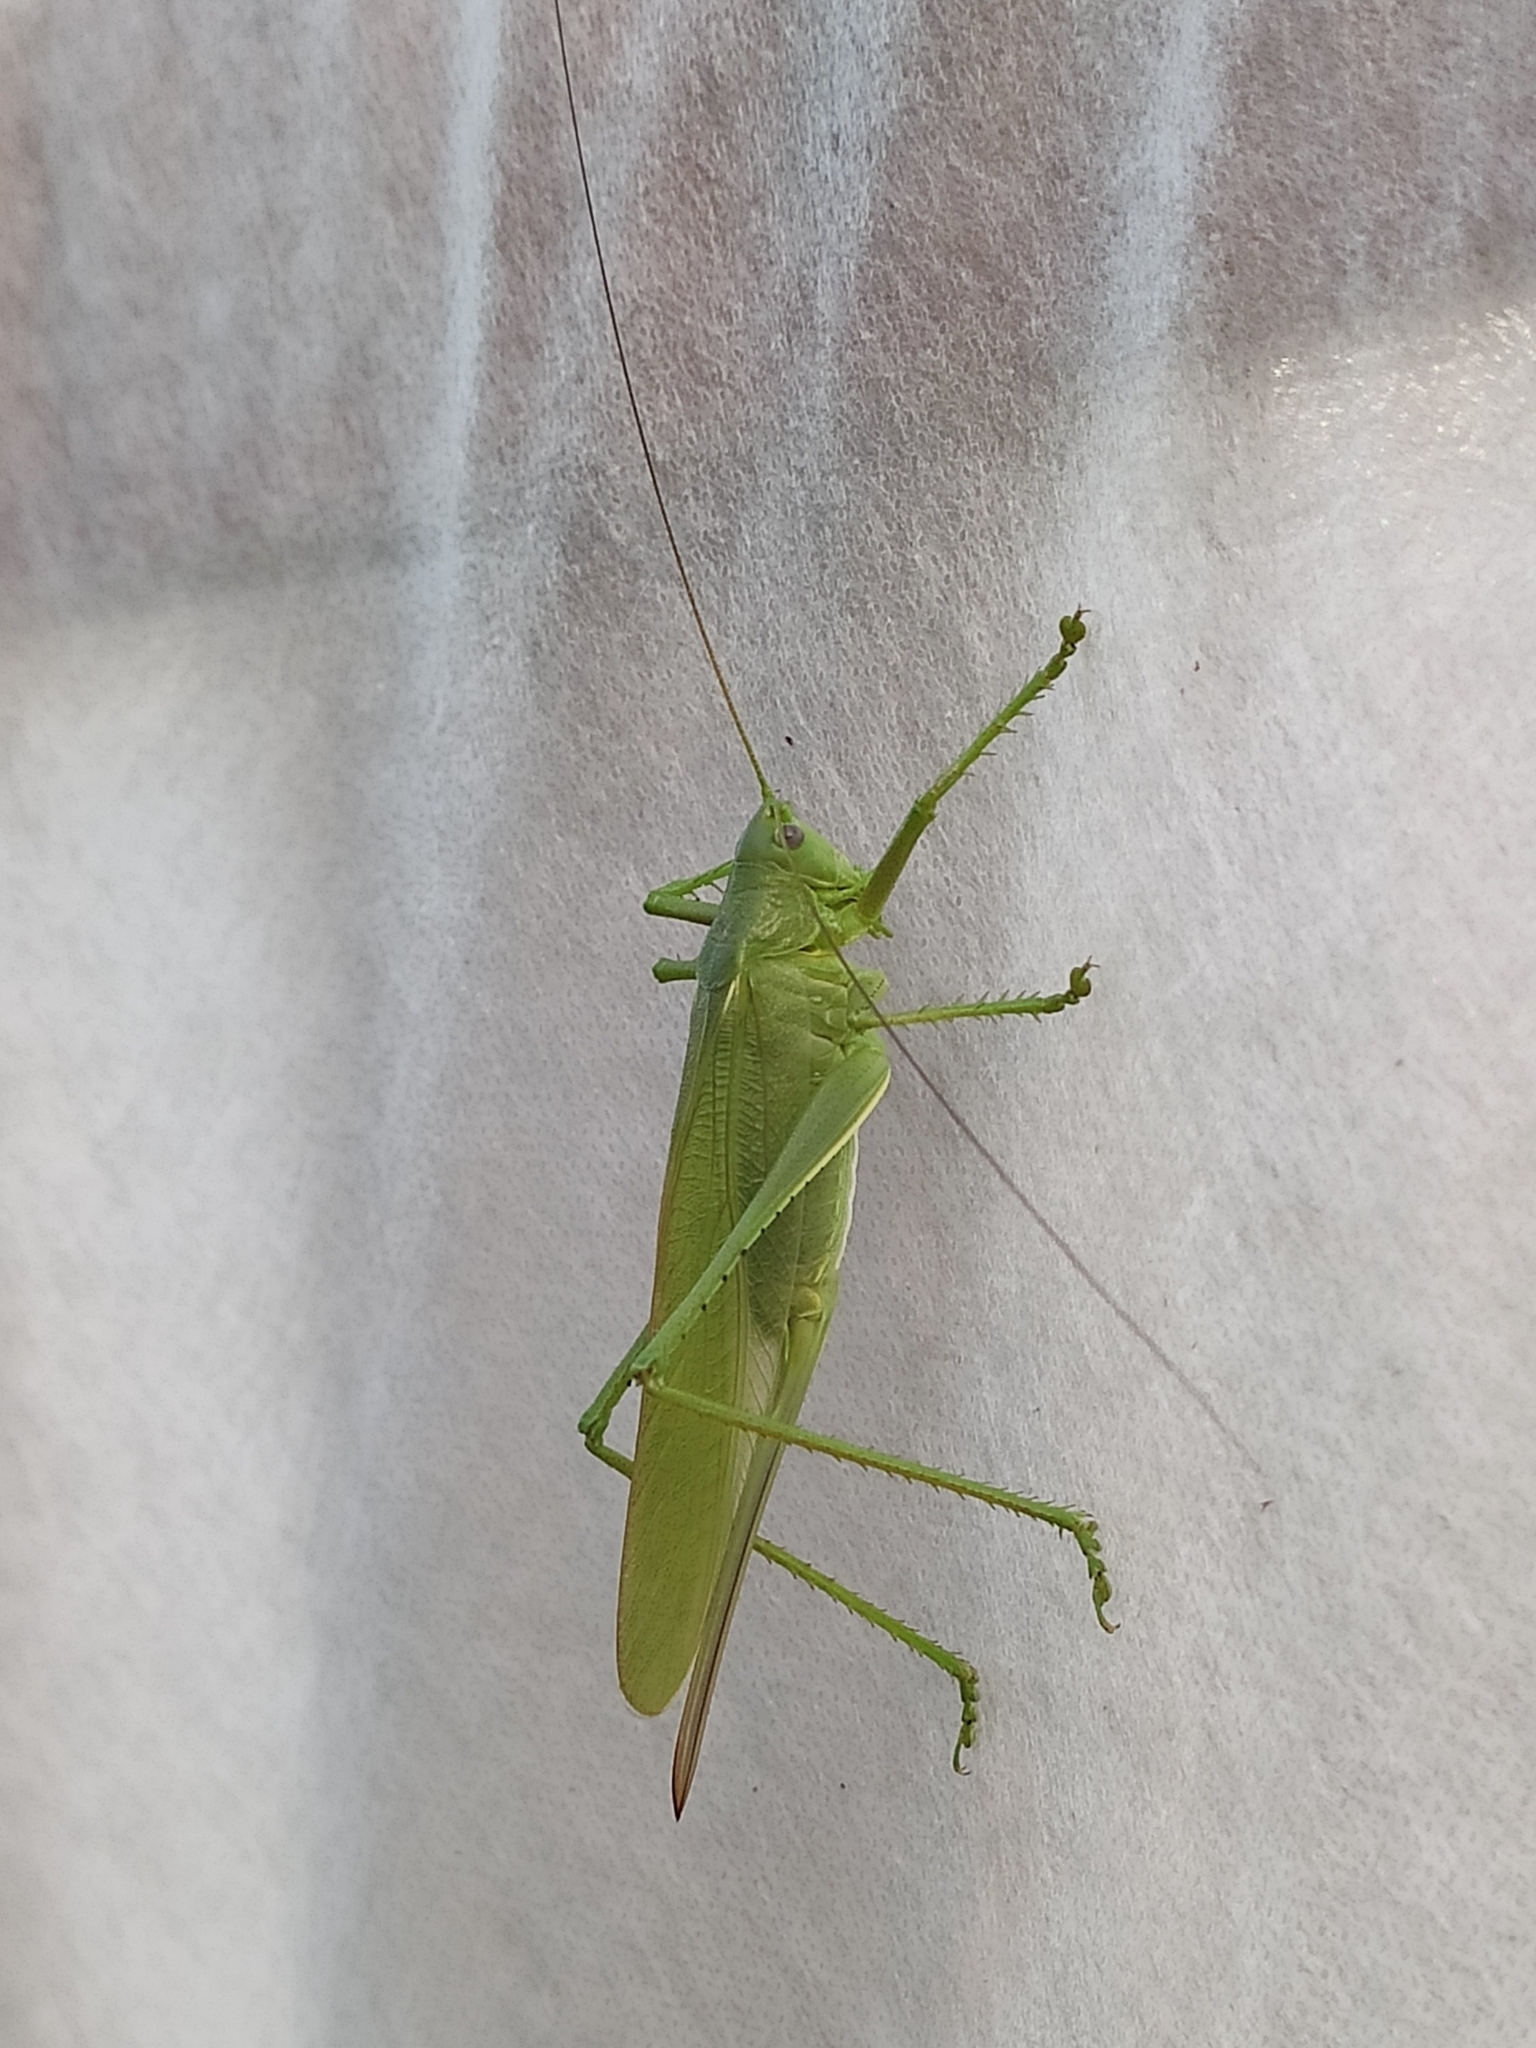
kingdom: Animalia
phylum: Arthropoda
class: Insecta
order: Orthoptera
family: Tettigoniidae
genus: Tettigonia
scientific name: Tettigonia caudata
